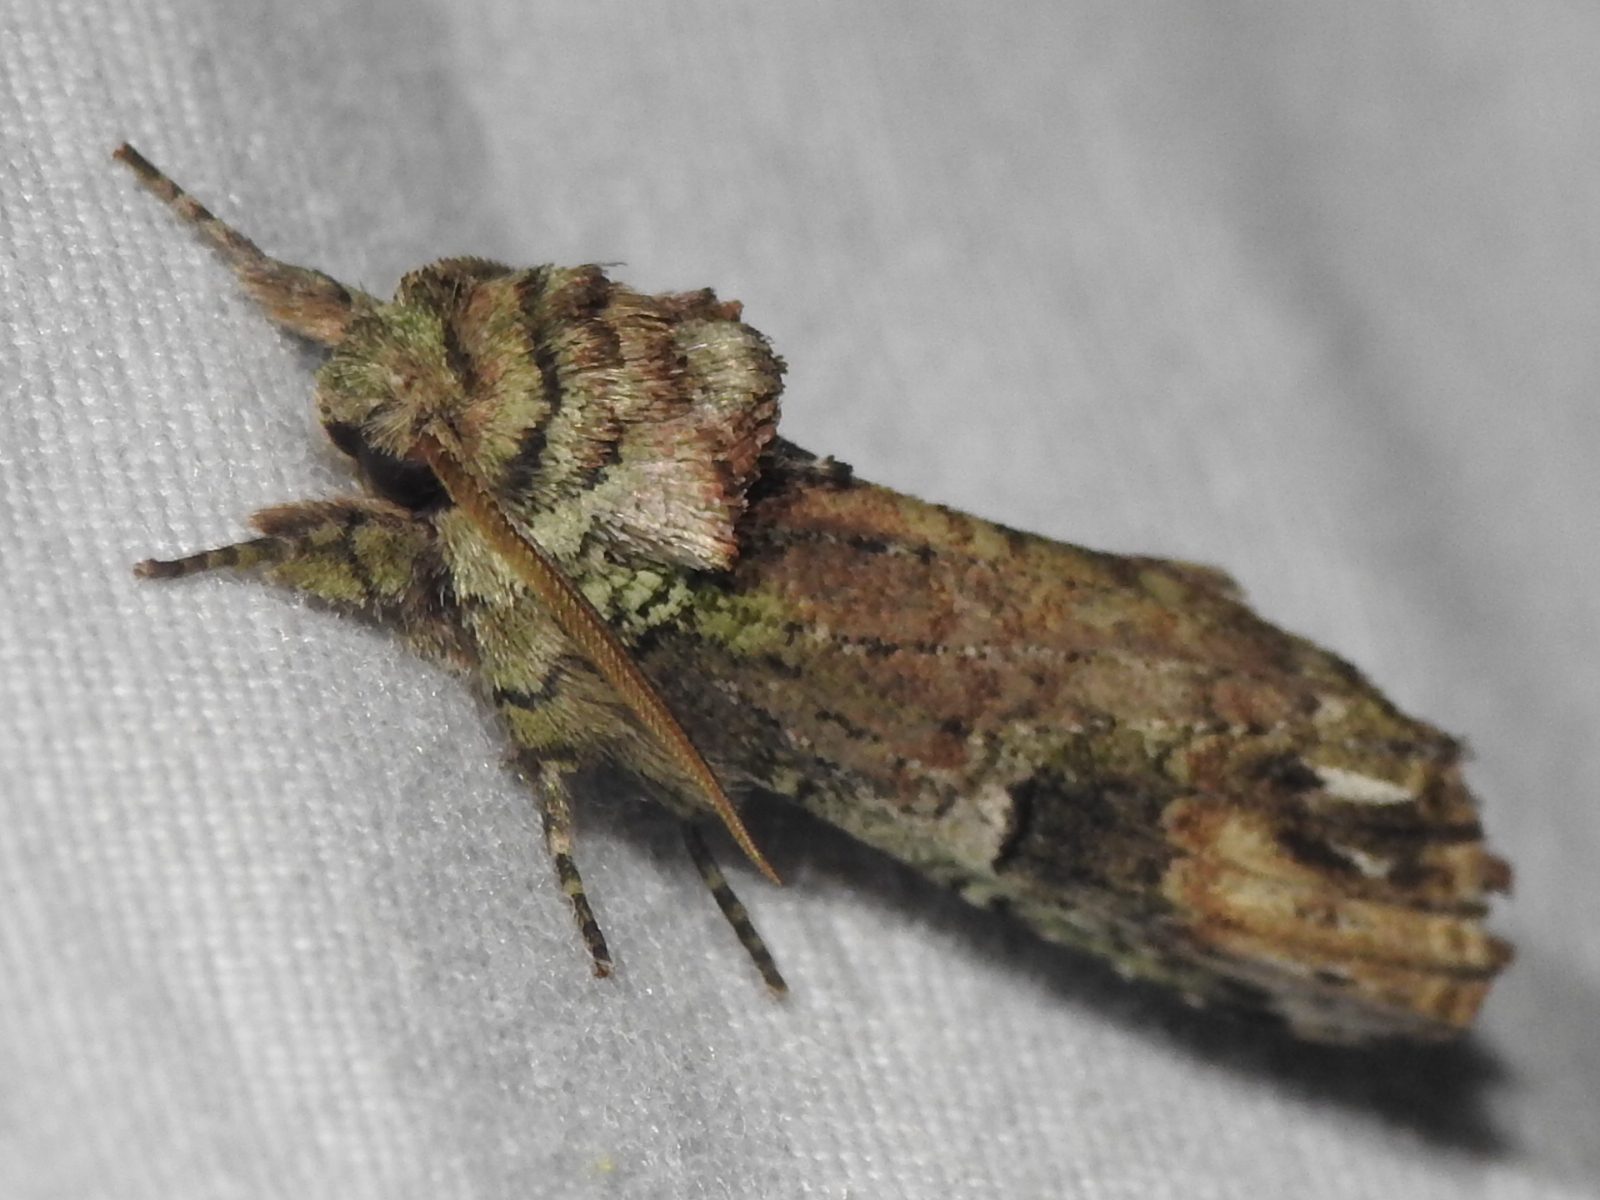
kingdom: Animalia
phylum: Arthropoda
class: Insecta
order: Lepidoptera
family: Notodontidae
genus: Schizura
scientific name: Schizura
